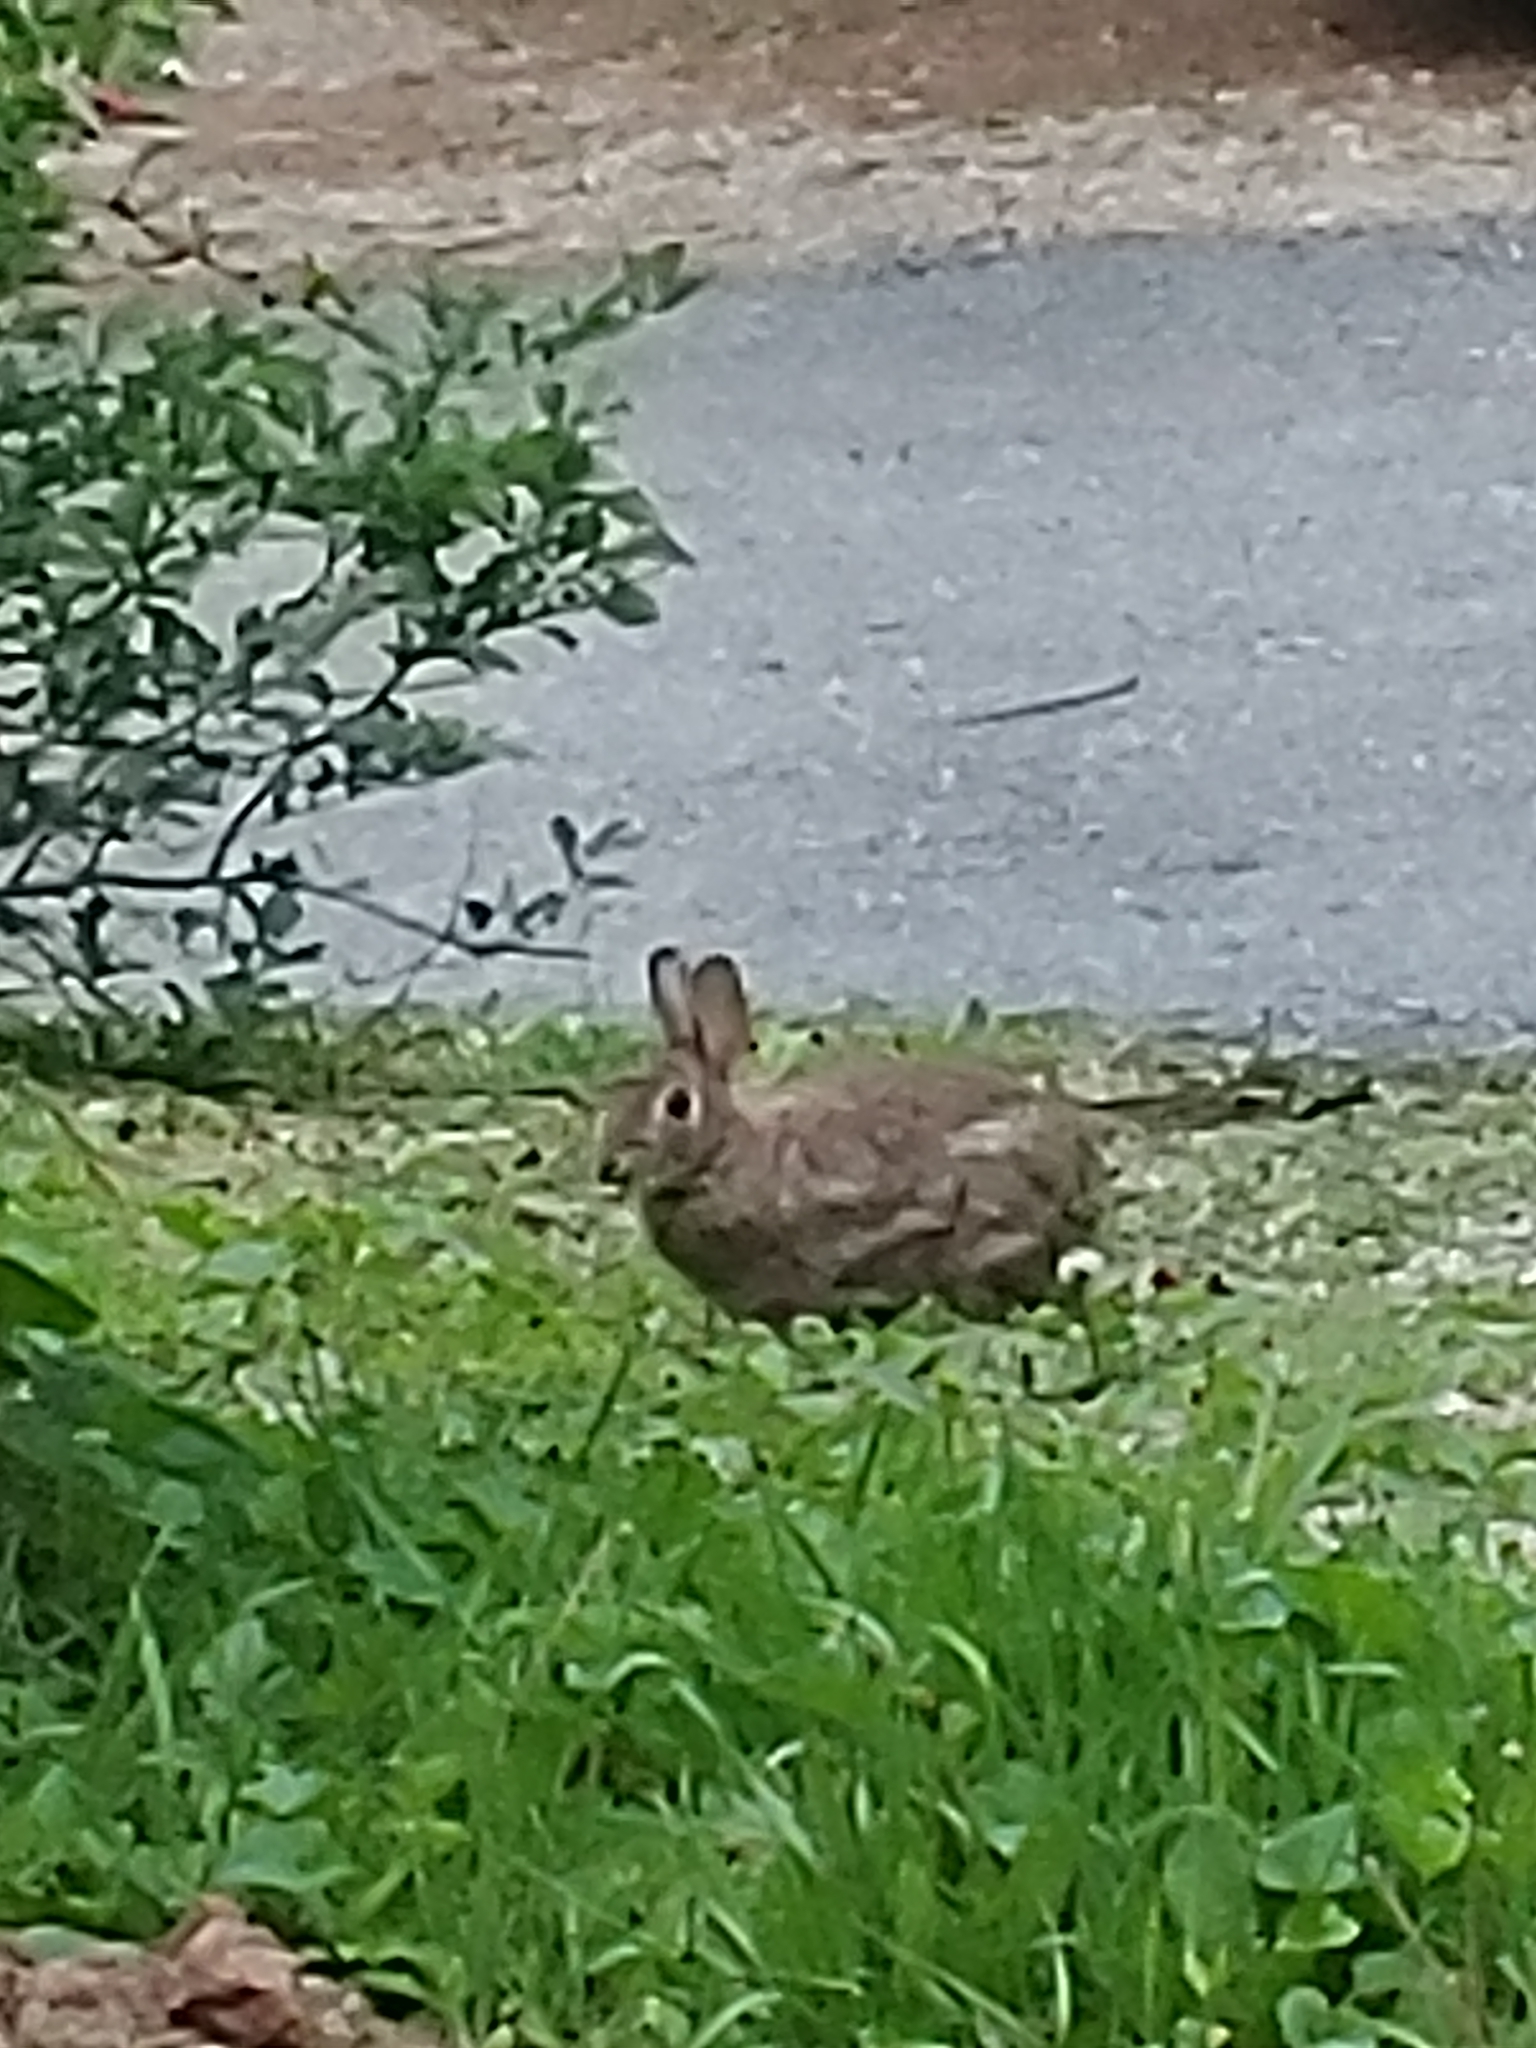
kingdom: Animalia
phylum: Chordata
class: Mammalia
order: Lagomorpha
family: Leporidae
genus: Sylvilagus
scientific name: Sylvilagus floridanus
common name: Eastern cottontail
